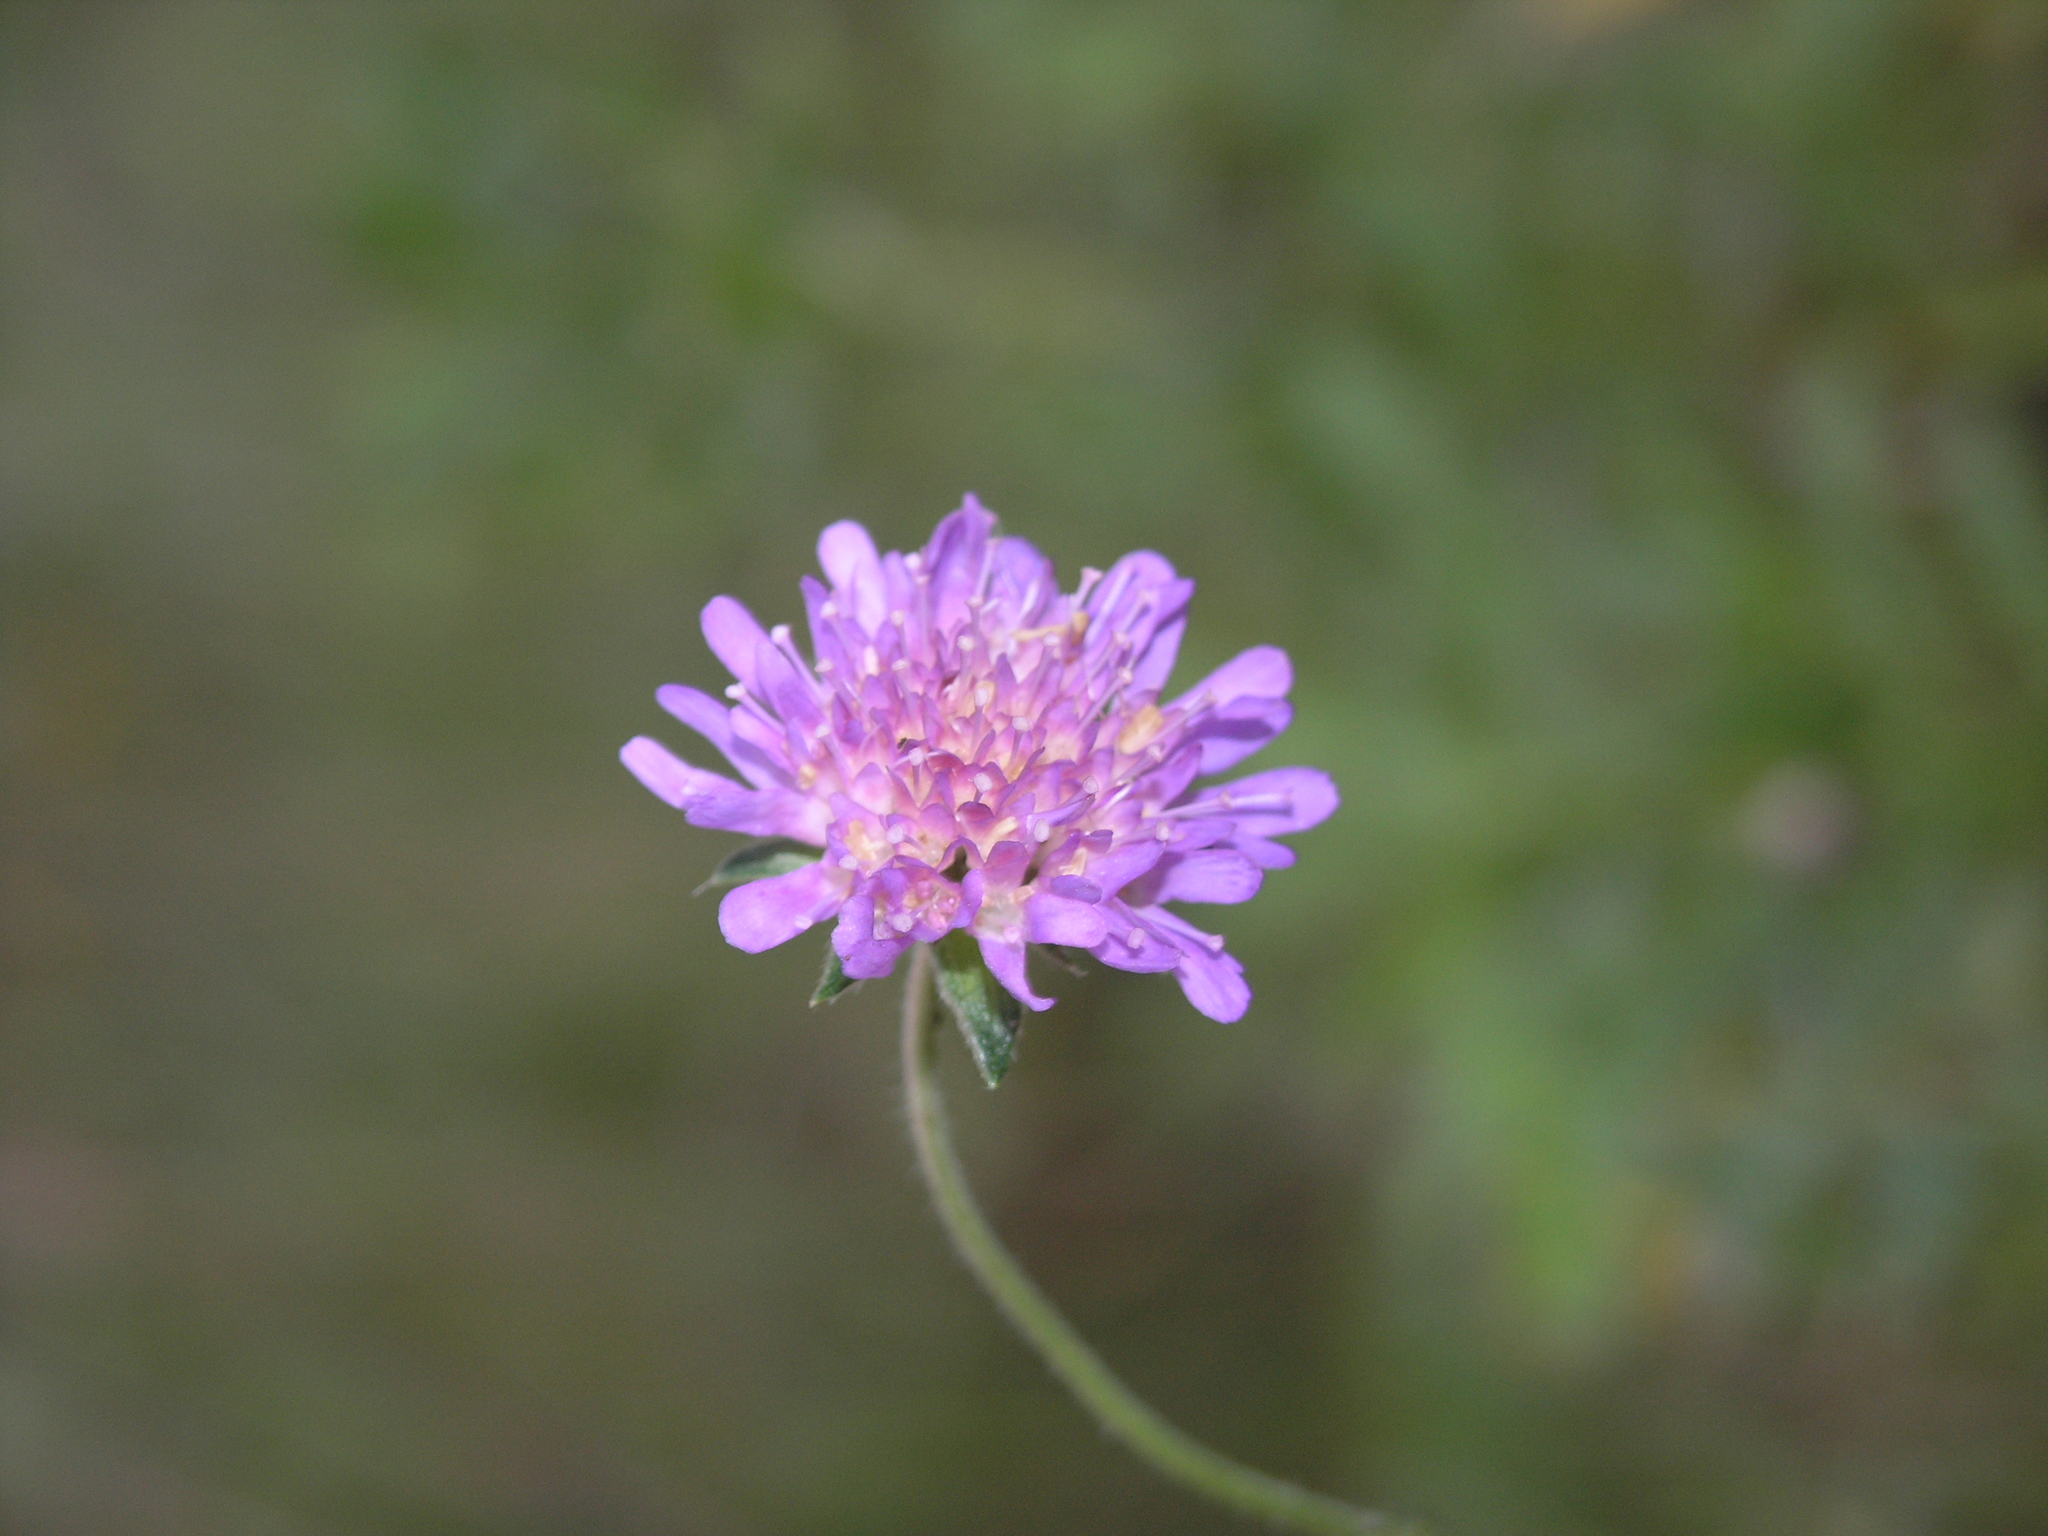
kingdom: Plantae
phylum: Tracheophyta
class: Magnoliopsida
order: Dipsacales
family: Caprifoliaceae
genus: Knautia
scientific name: Knautia arvensis
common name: Field scabiosa
